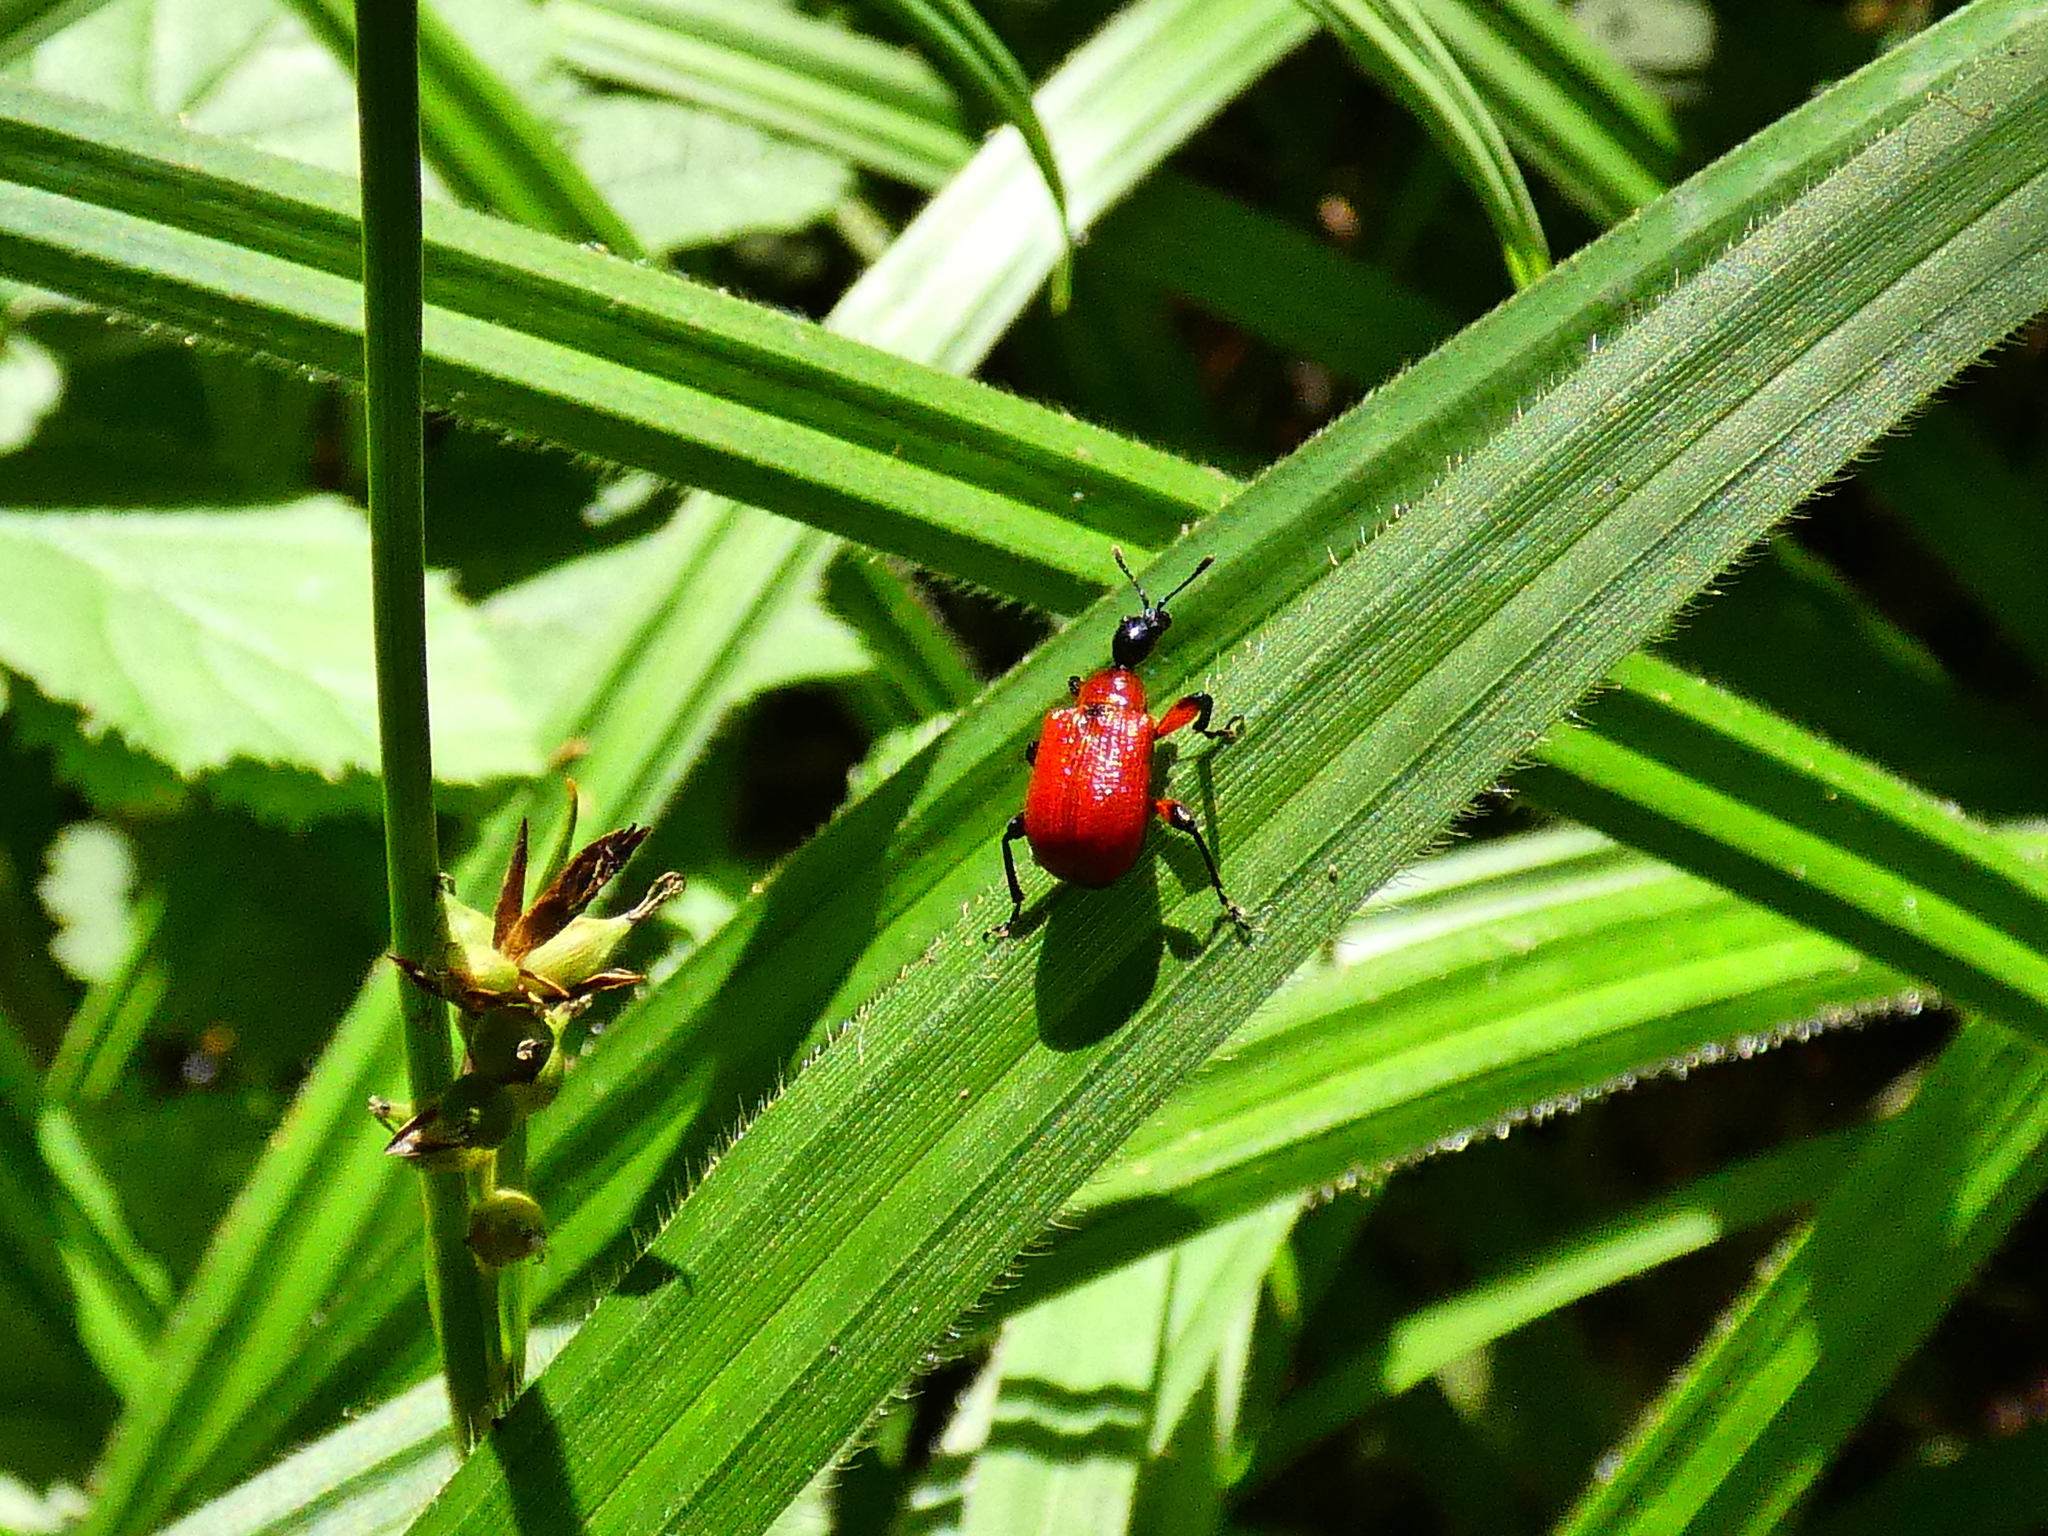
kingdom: Animalia
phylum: Arthropoda
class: Insecta
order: Coleoptera
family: Attelabidae
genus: Apoderus
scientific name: Apoderus coryli
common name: Hazel leaf roller
